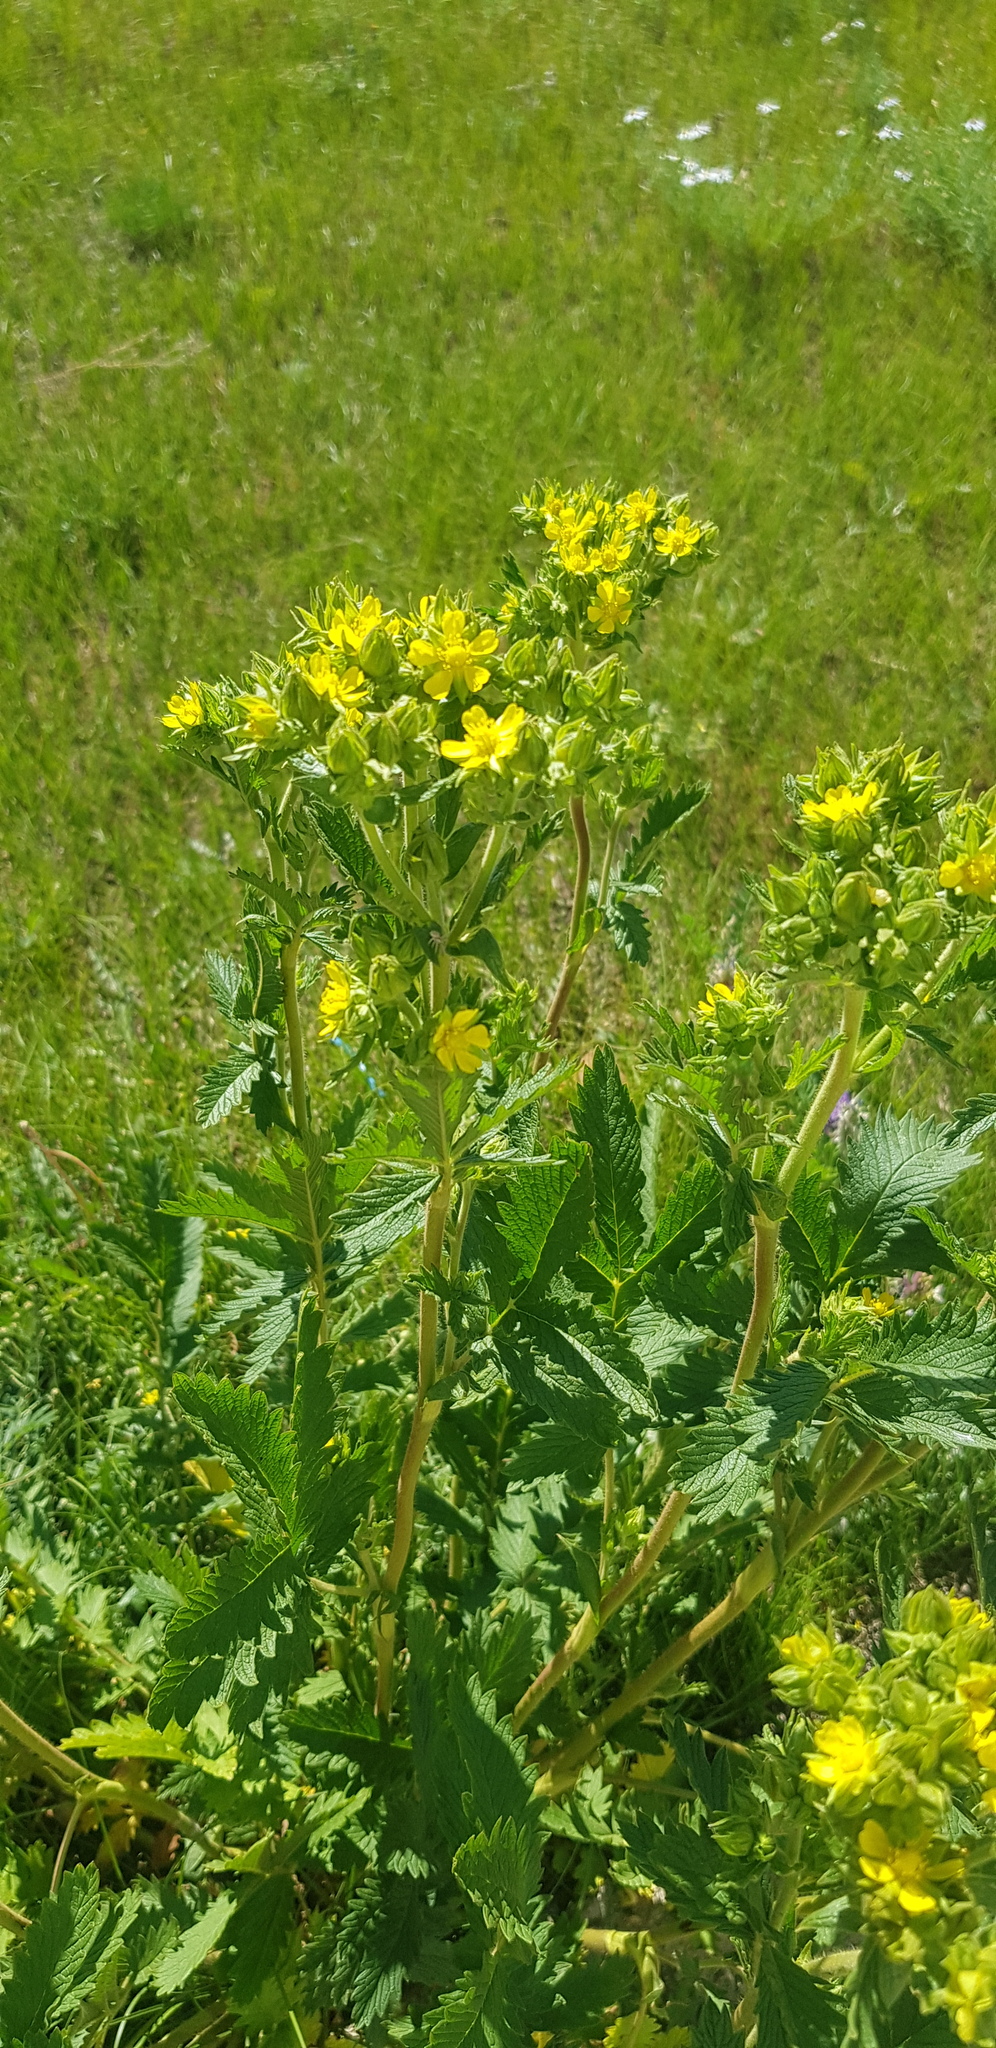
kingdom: Plantae
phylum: Tracheophyta
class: Magnoliopsida
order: Rosales
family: Rosaceae
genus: Potentilla
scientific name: Potentilla tanacetifolia
